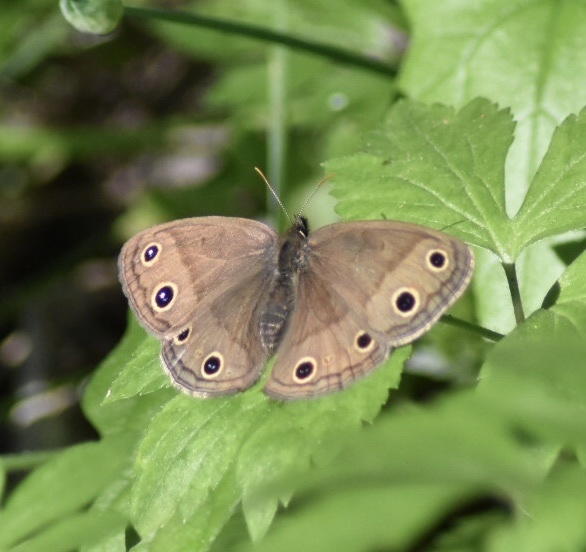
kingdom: Animalia
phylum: Arthropoda
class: Insecta
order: Lepidoptera
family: Nymphalidae
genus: Euptychia
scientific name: Euptychia cymela
